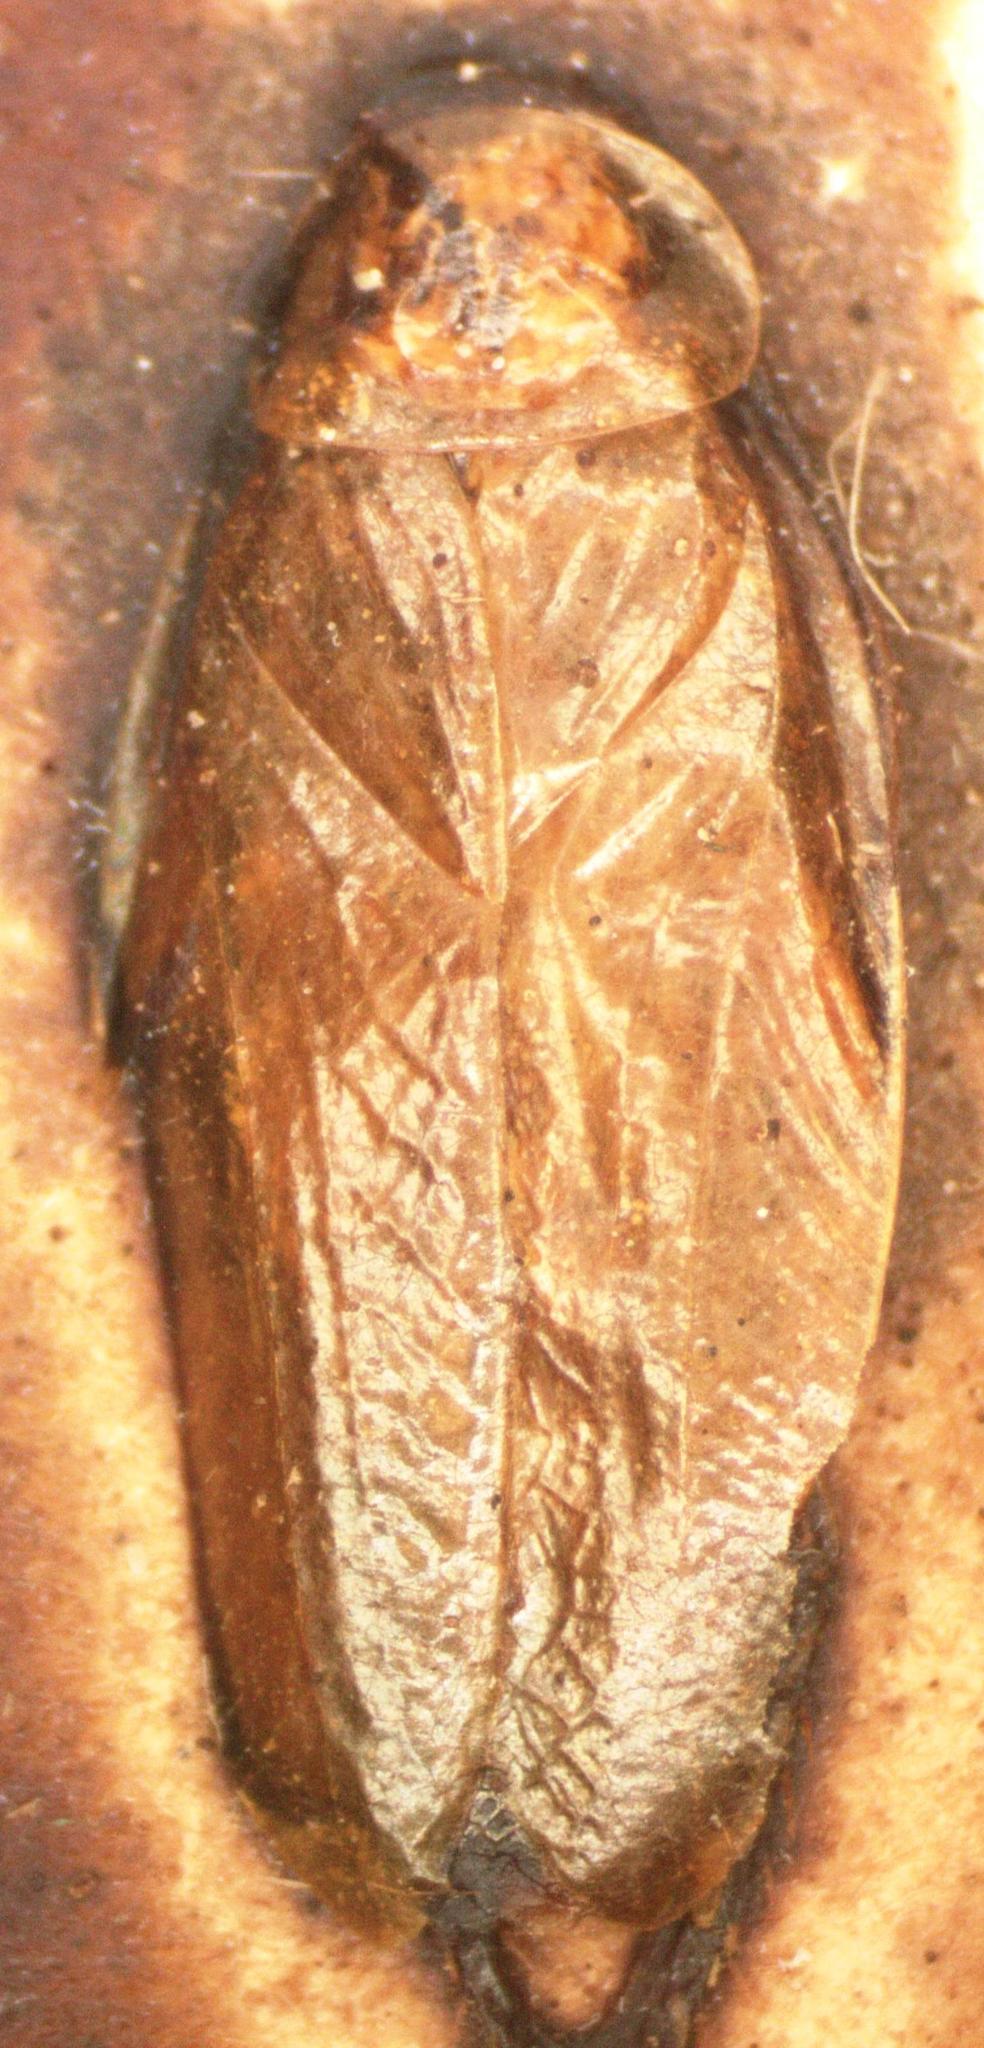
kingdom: Animalia
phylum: Arthropoda
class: Insecta
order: Blattodea
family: Ectobiidae
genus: Chorisoneura
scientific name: Chorisoneura flavipennis
